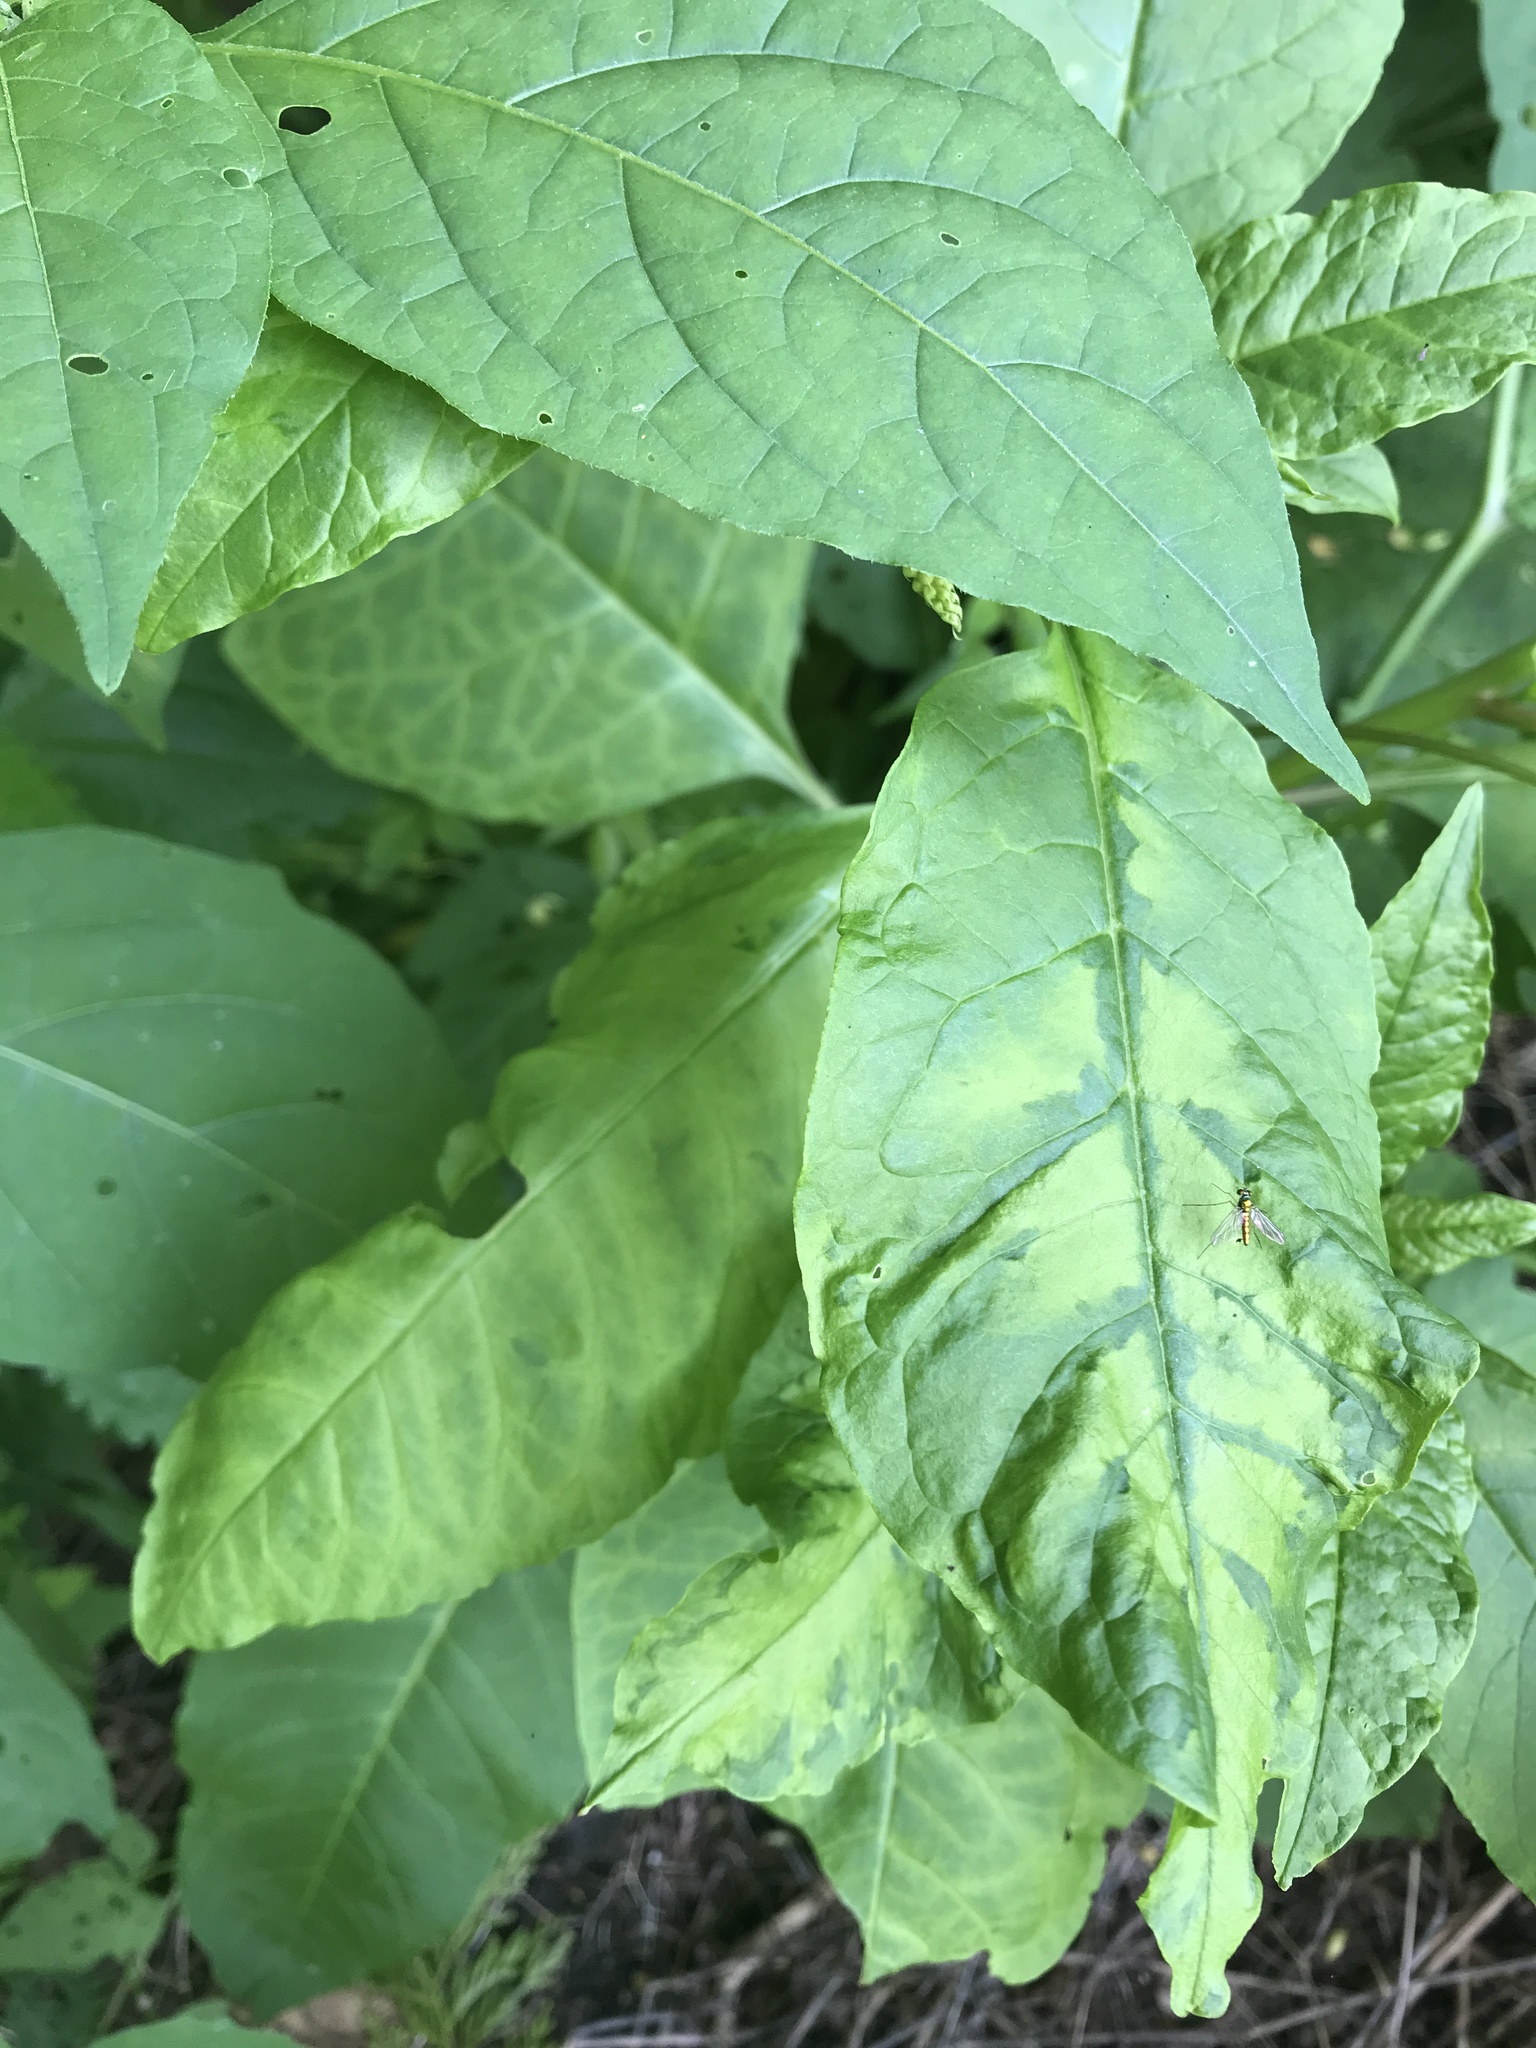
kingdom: Viruses
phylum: Pisuviricota
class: Stelpaviricetes
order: Patatavirales
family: Potyviridae
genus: Potyvirus
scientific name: Potyvirus Pokeweed mosaic virus
